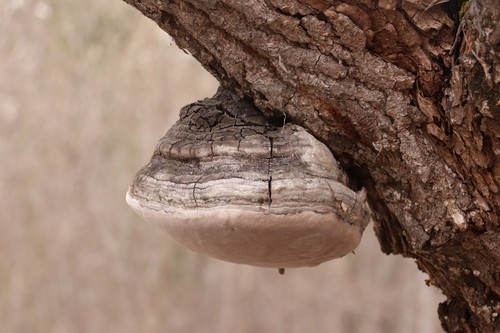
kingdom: Fungi
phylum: Basidiomycota
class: Agaricomycetes
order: Hymenochaetales
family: Hymenochaetaceae
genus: Phellinus
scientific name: Phellinus igniarius
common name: Willow bracket
